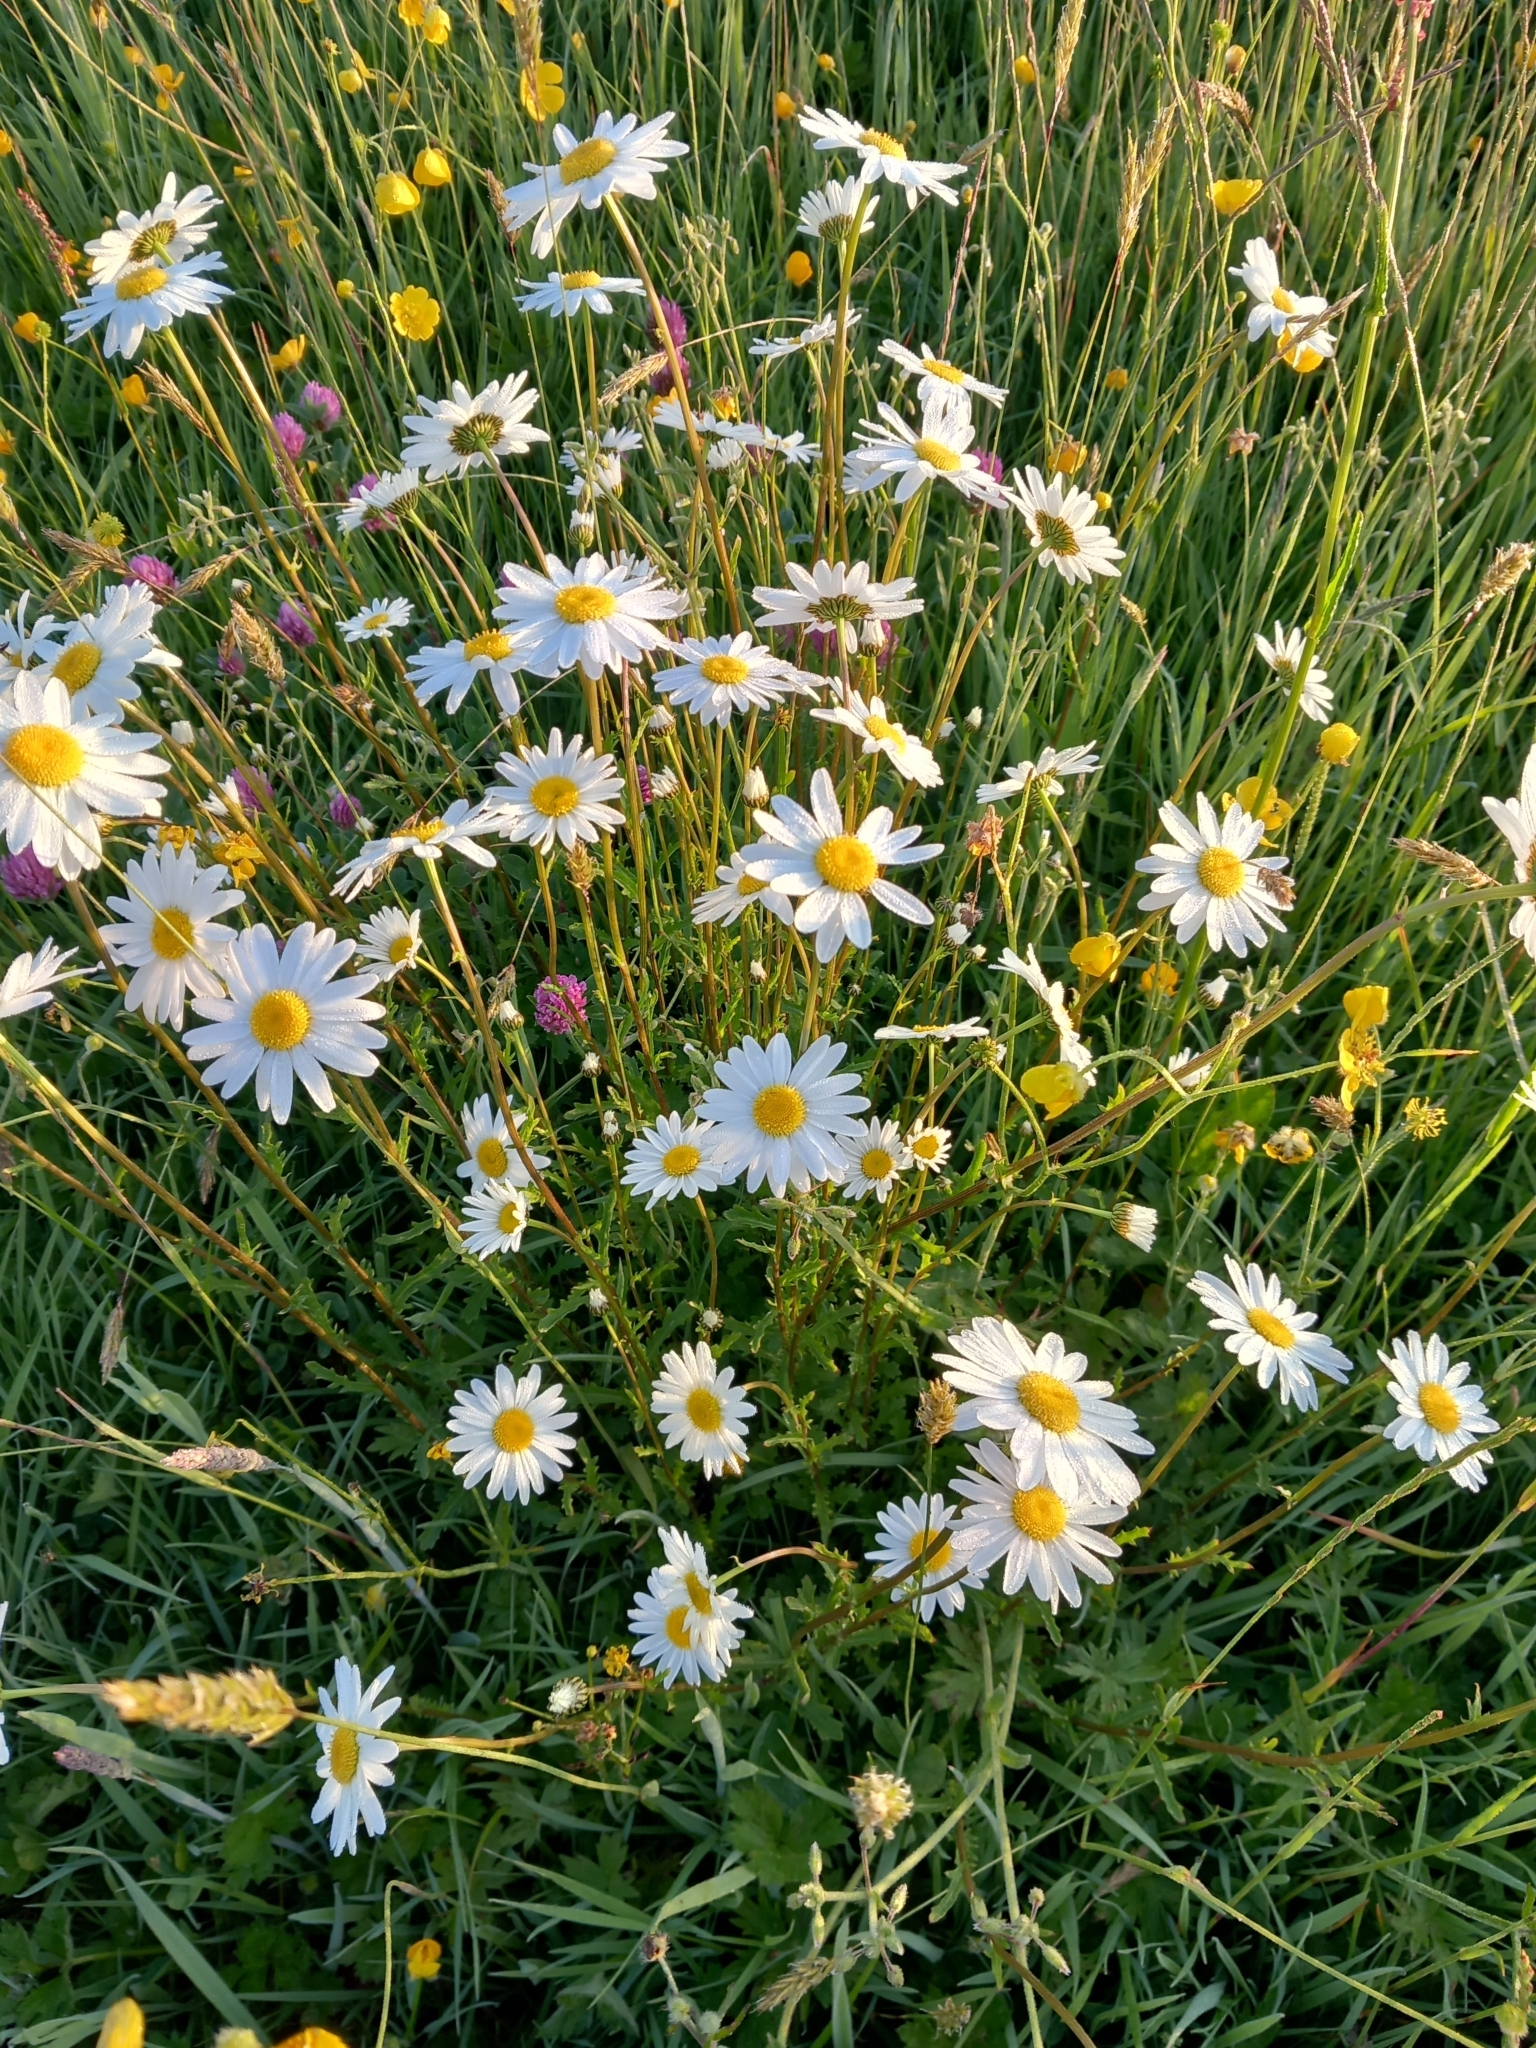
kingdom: Plantae
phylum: Tracheophyta
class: Magnoliopsida
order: Asterales
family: Asteraceae
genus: Leucanthemum
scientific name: Leucanthemum vulgare
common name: Oxeye daisy
